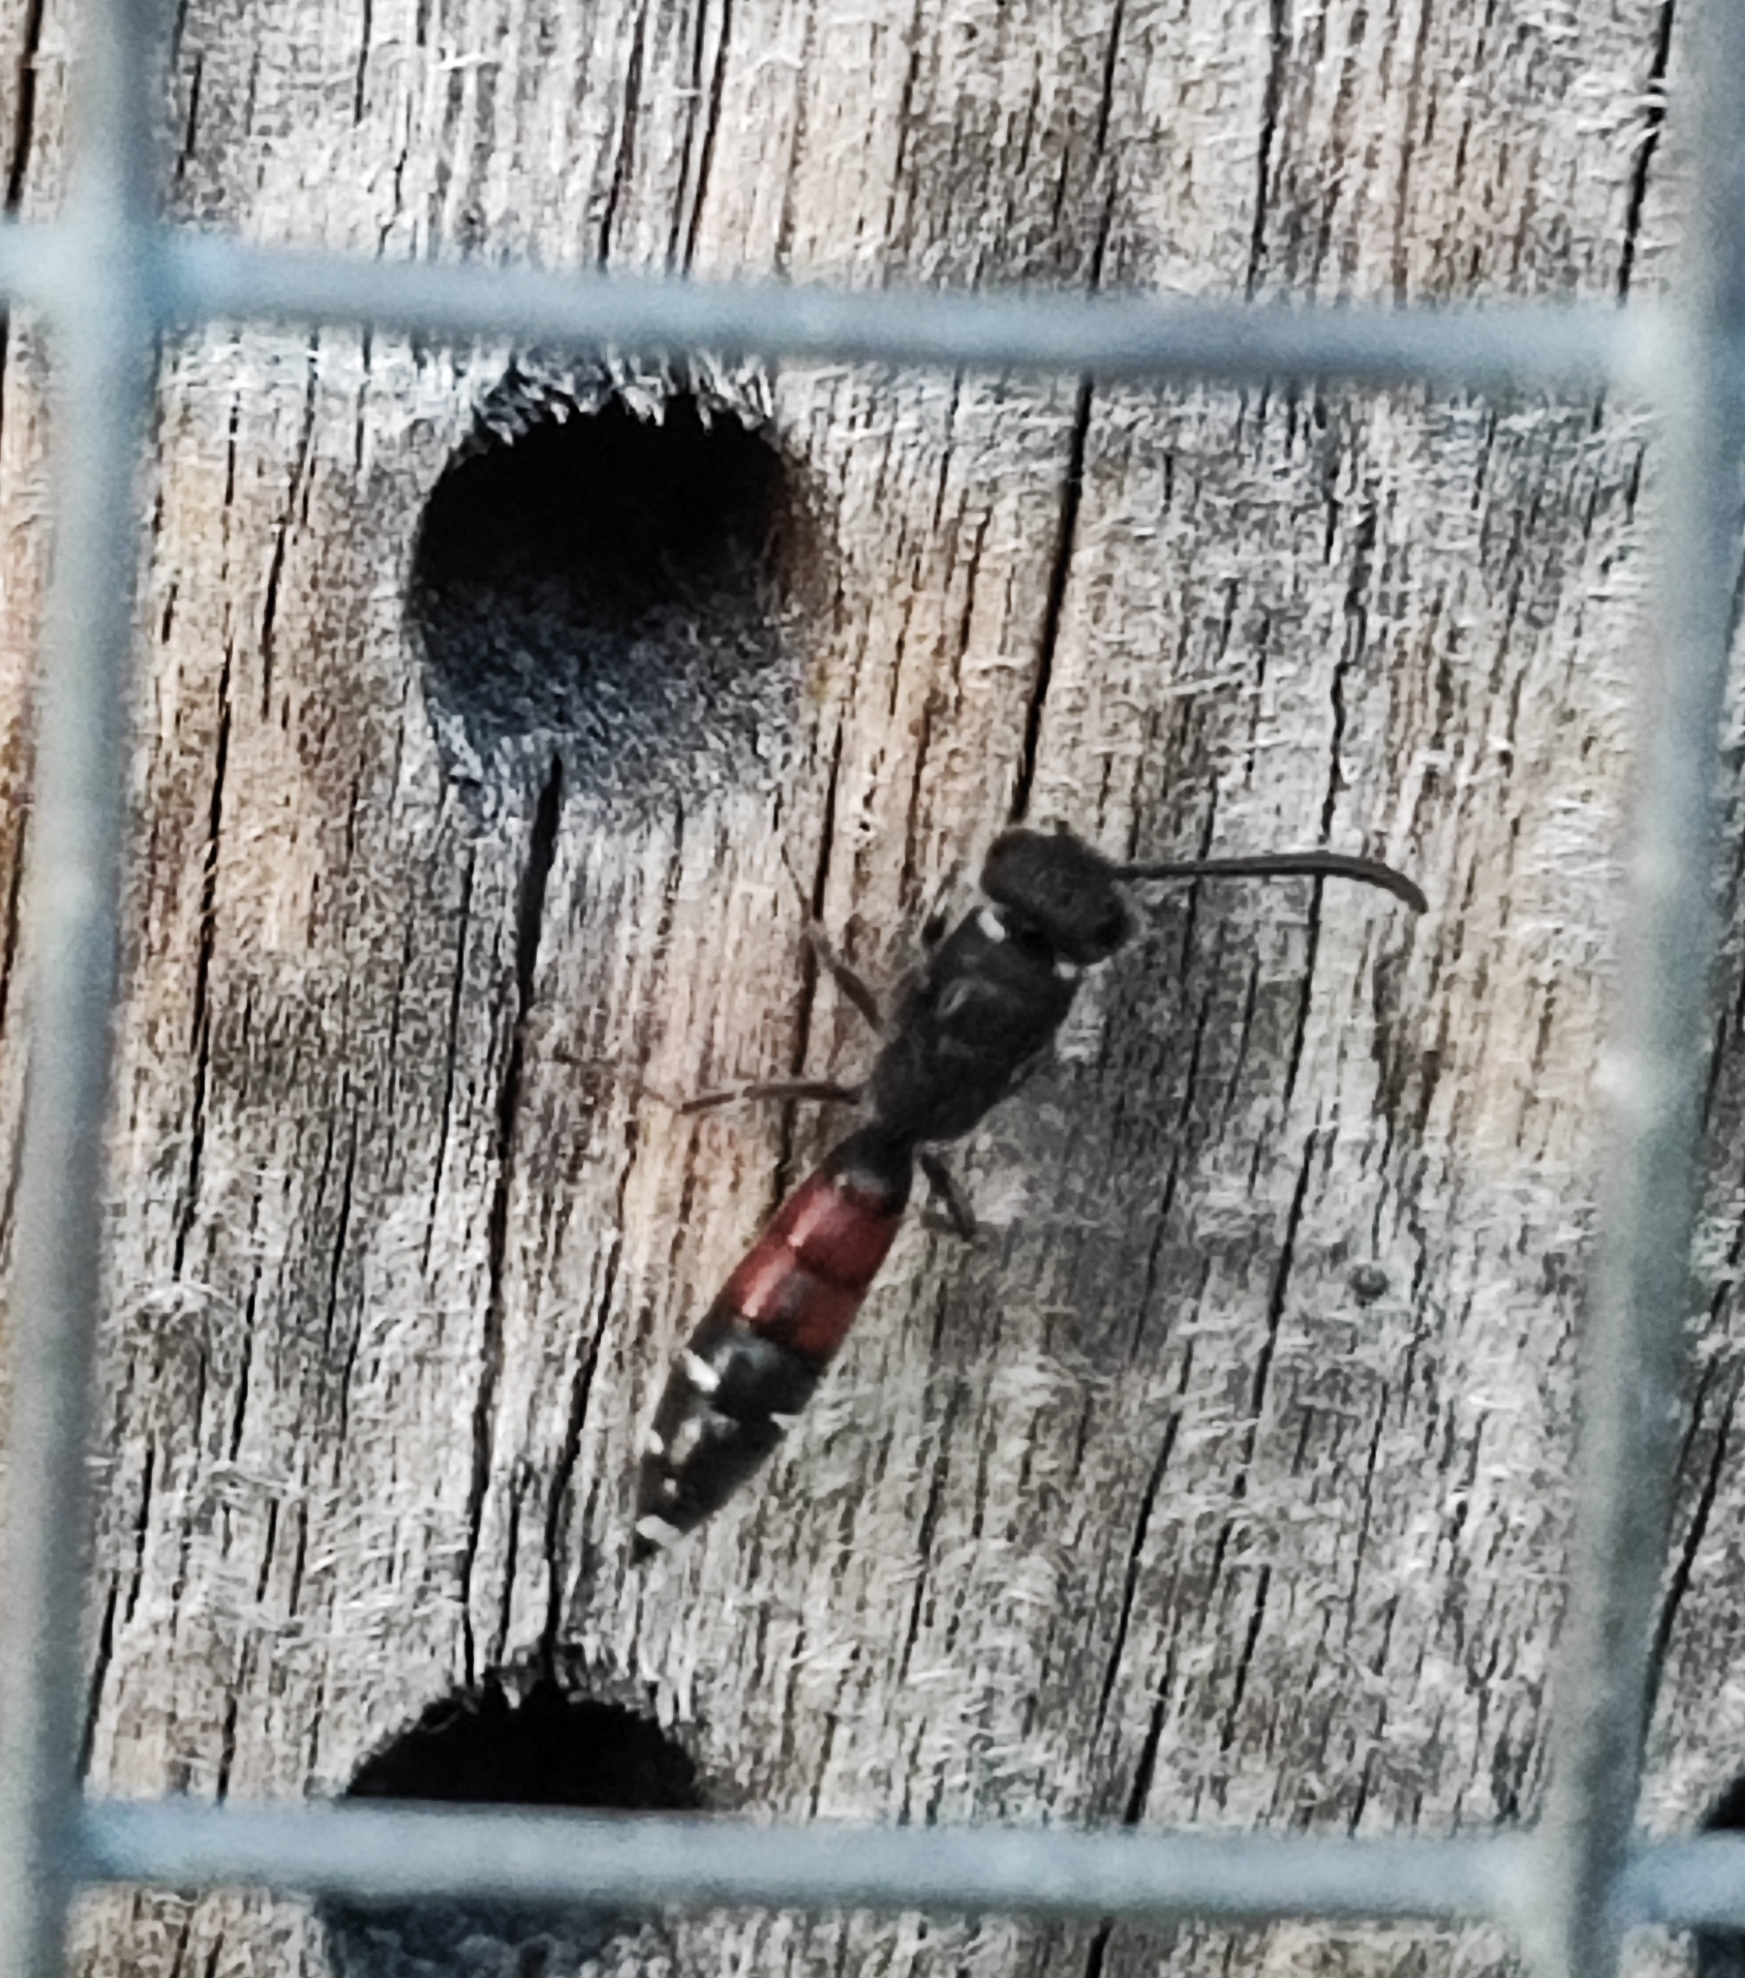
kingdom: Animalia
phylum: Arthropoda
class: Insecta
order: Hymenoptera
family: Sapygidae
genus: Sapyga
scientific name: Sapyga quinquepunctata
